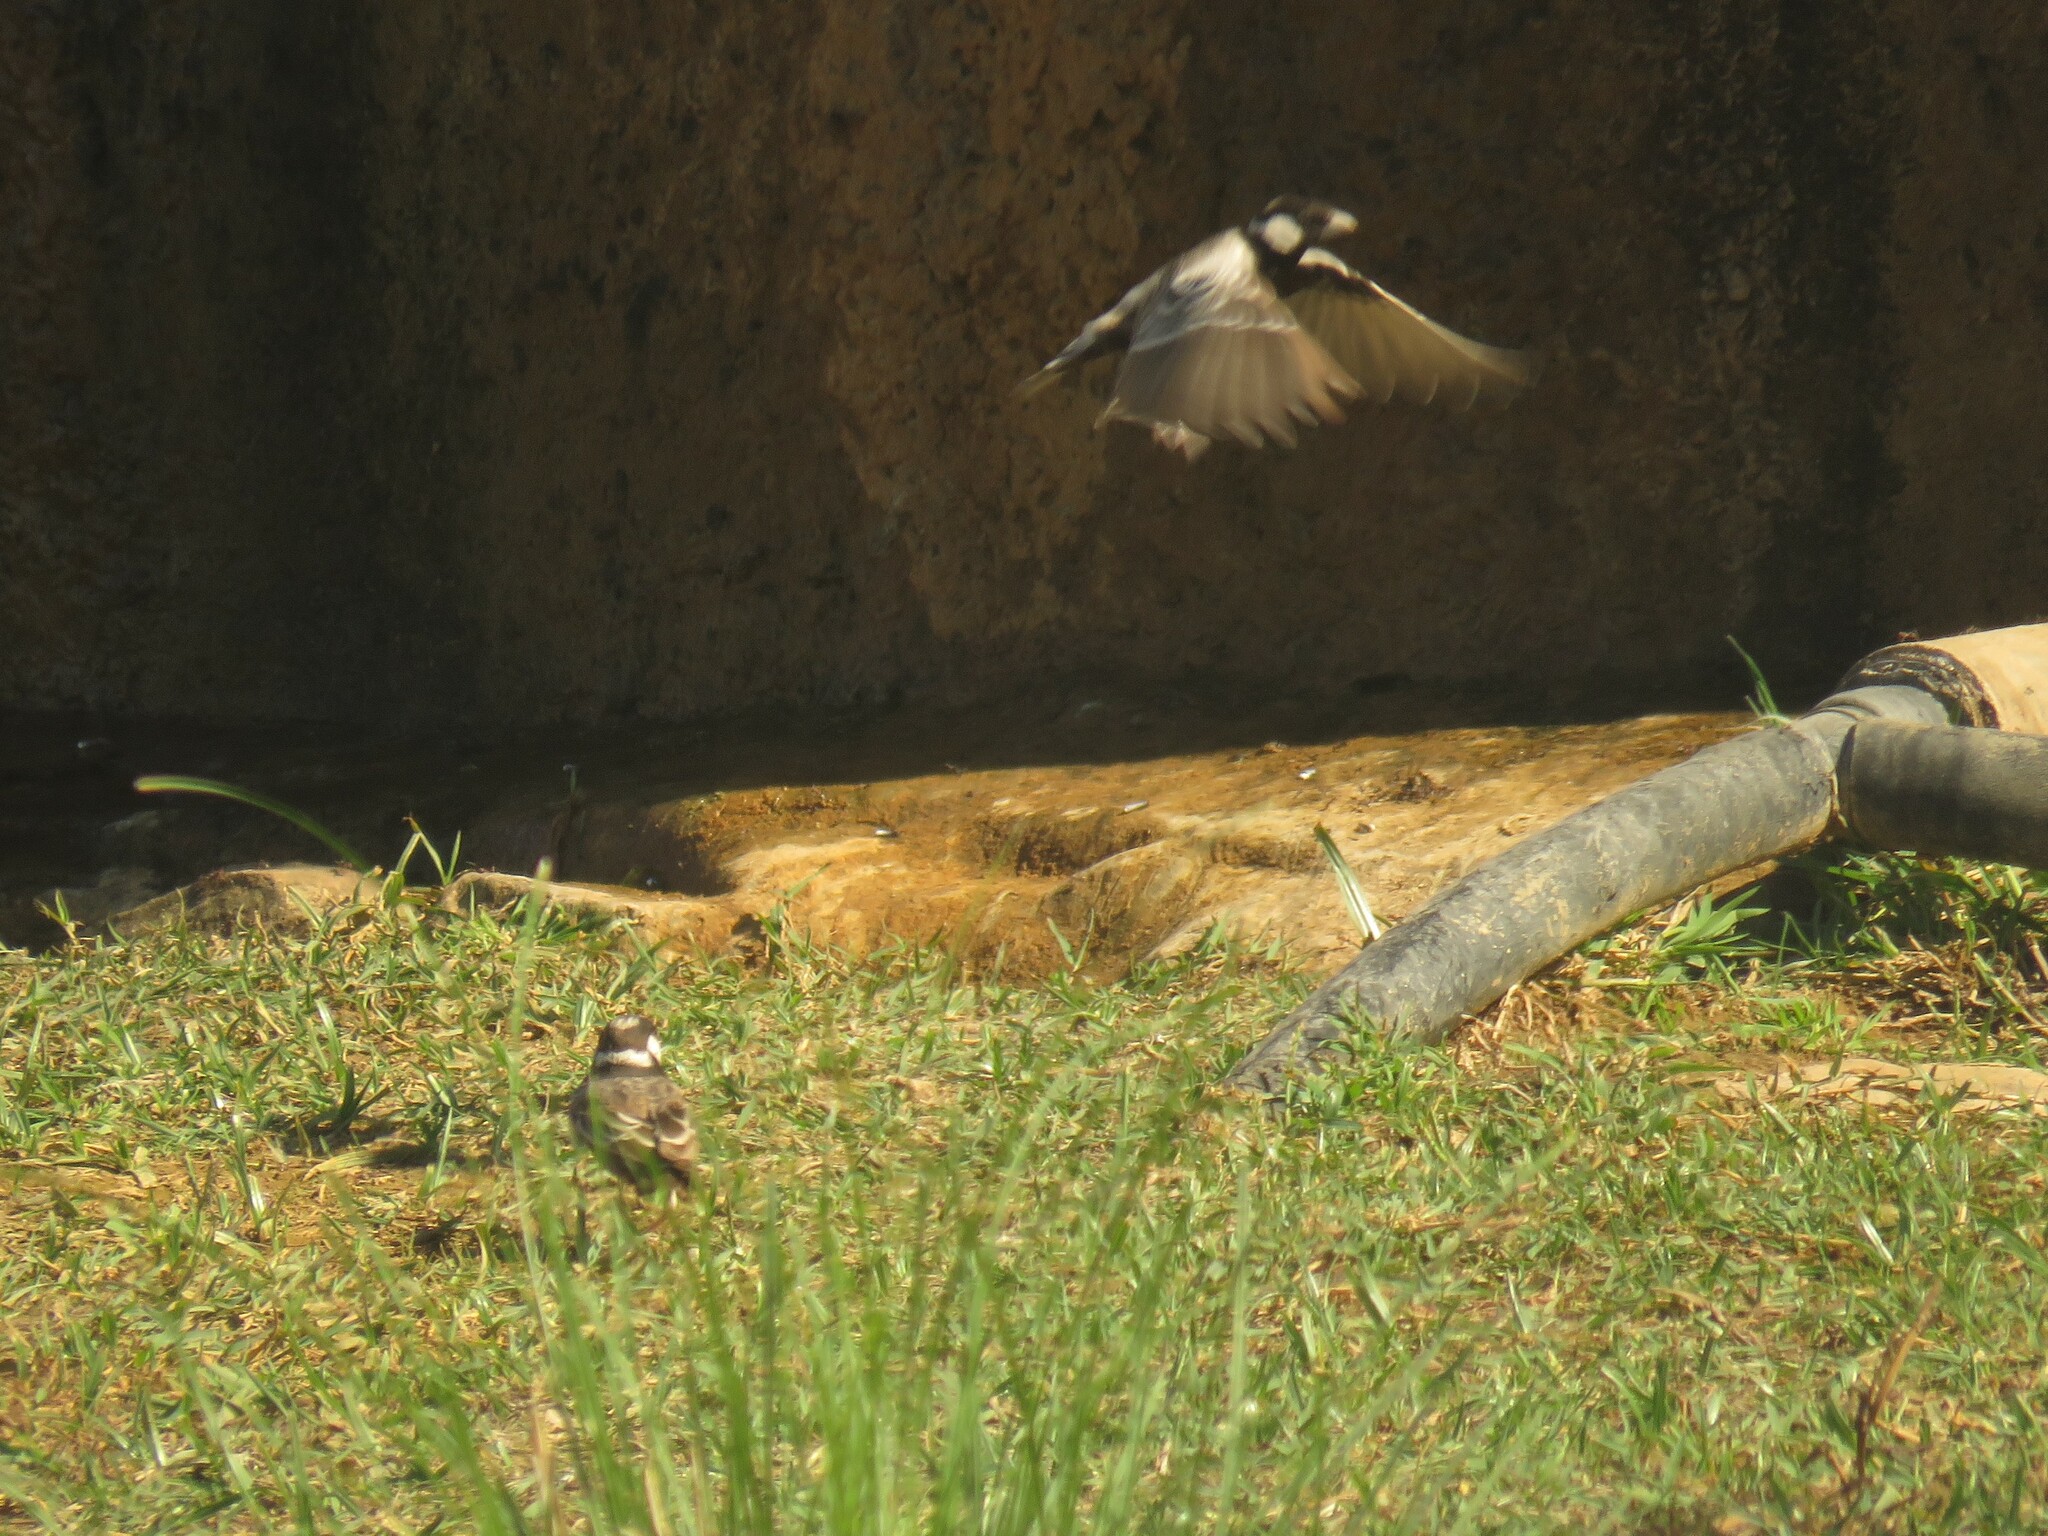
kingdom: Animalia
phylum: Chordata
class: Aves
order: Passeriformes
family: Alaudidae
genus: Eremopterix
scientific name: Eremopterix verticalis
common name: Grey-backed sparrow-lark
